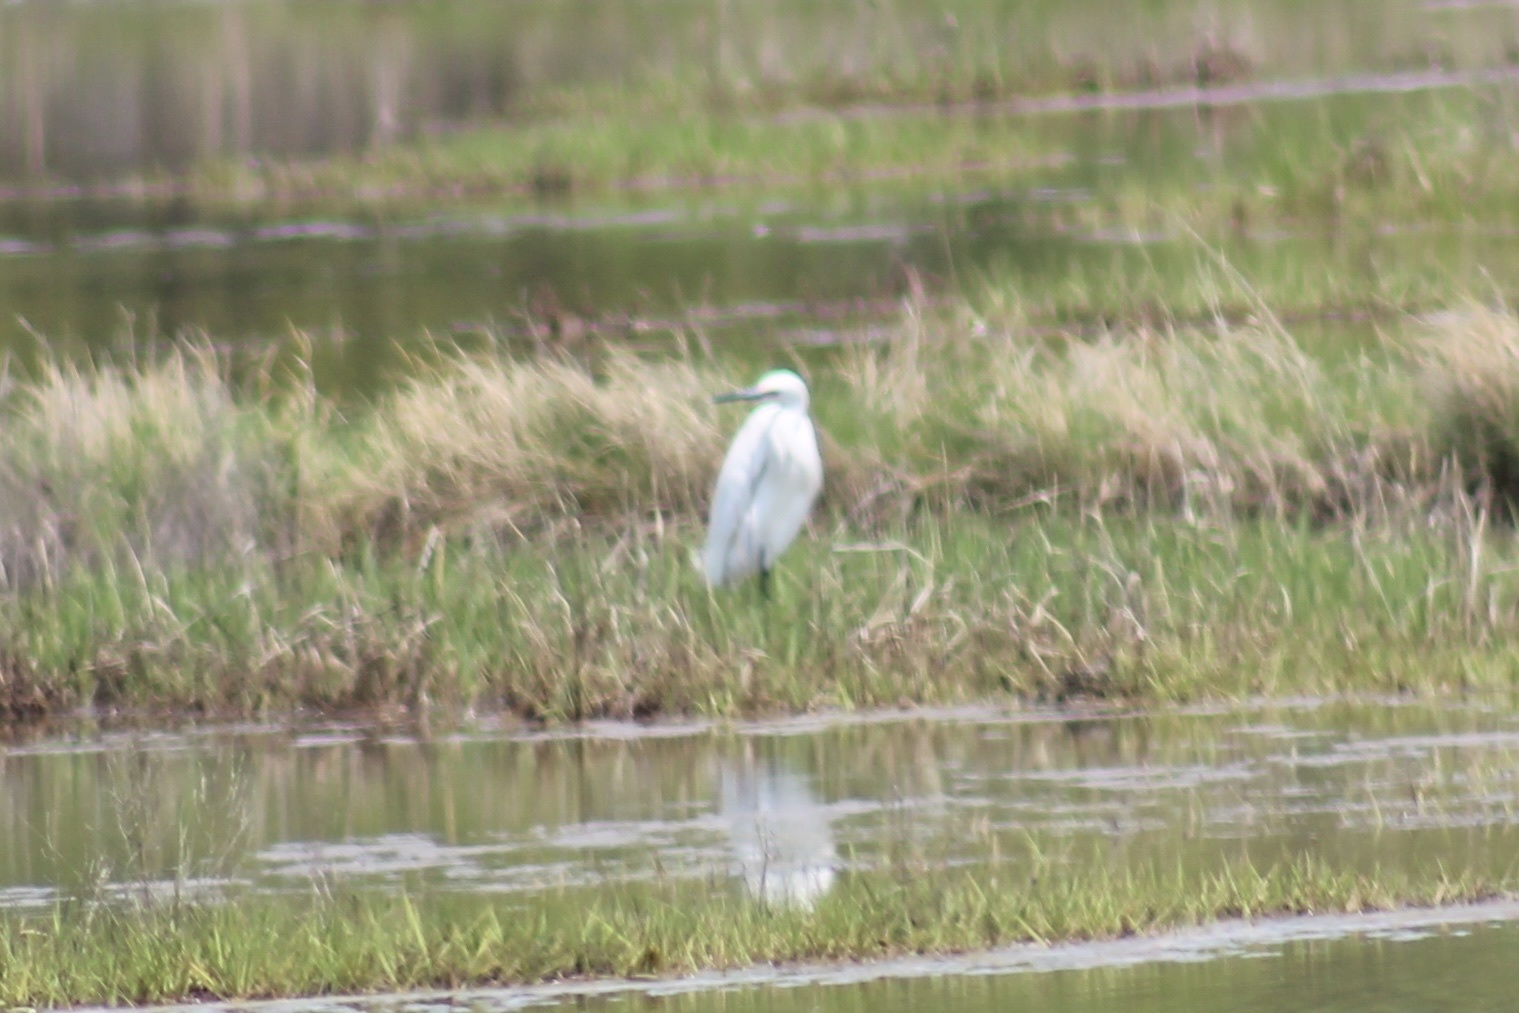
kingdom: Animalia
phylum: Chordata
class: Aves
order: Pelecaniformes
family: Ardeidae
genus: Egretta
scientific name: Egretta thula
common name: Snowy egret
